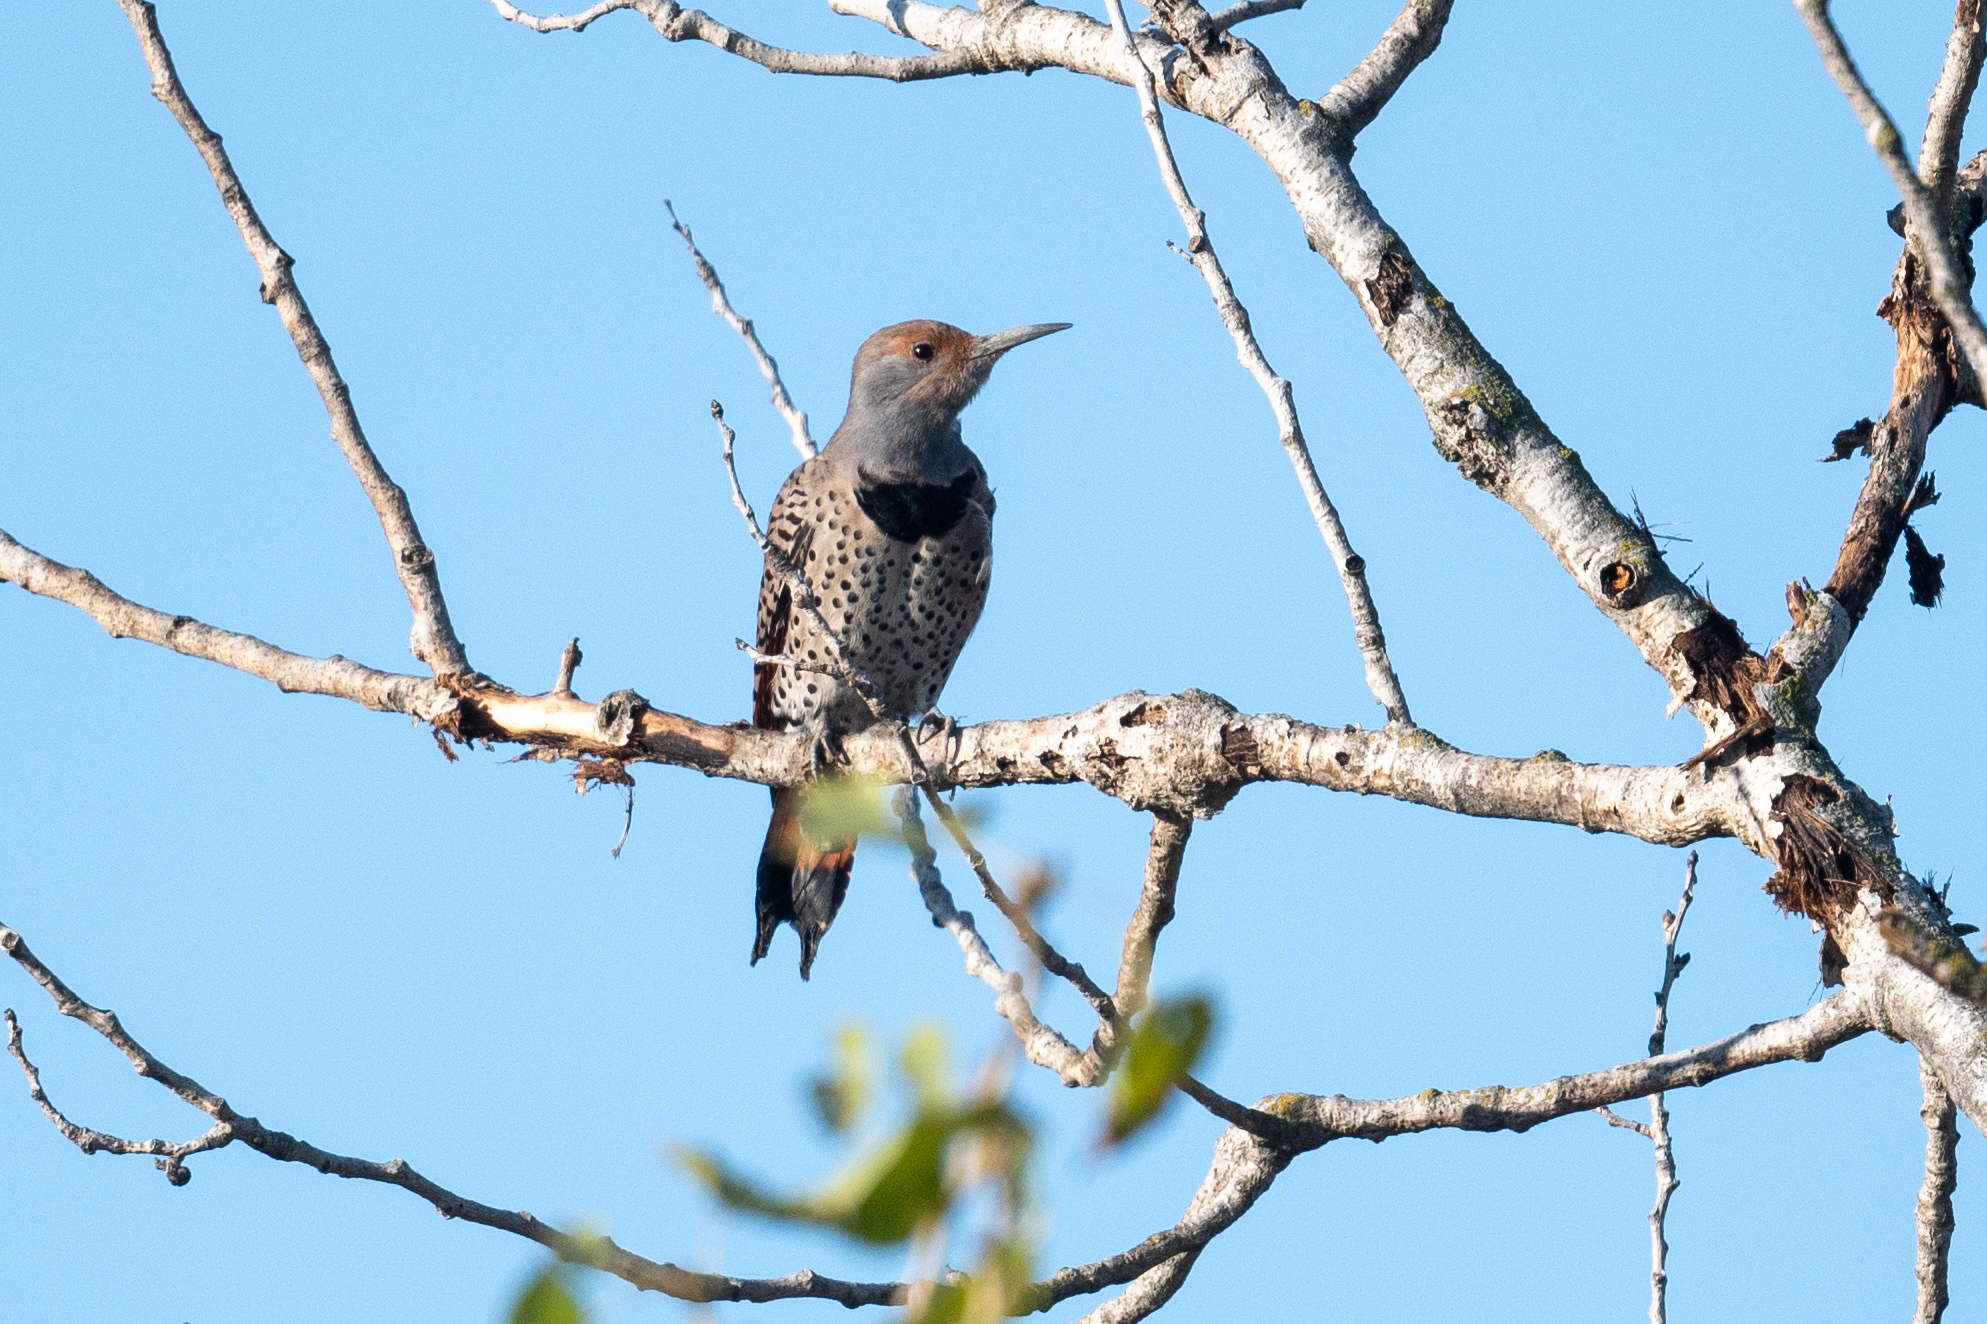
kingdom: Animalia
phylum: Chordata
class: Aves
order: Piciformes
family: Picidae
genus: Colaptes
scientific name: Colaptes auratus
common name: Northern flicker
